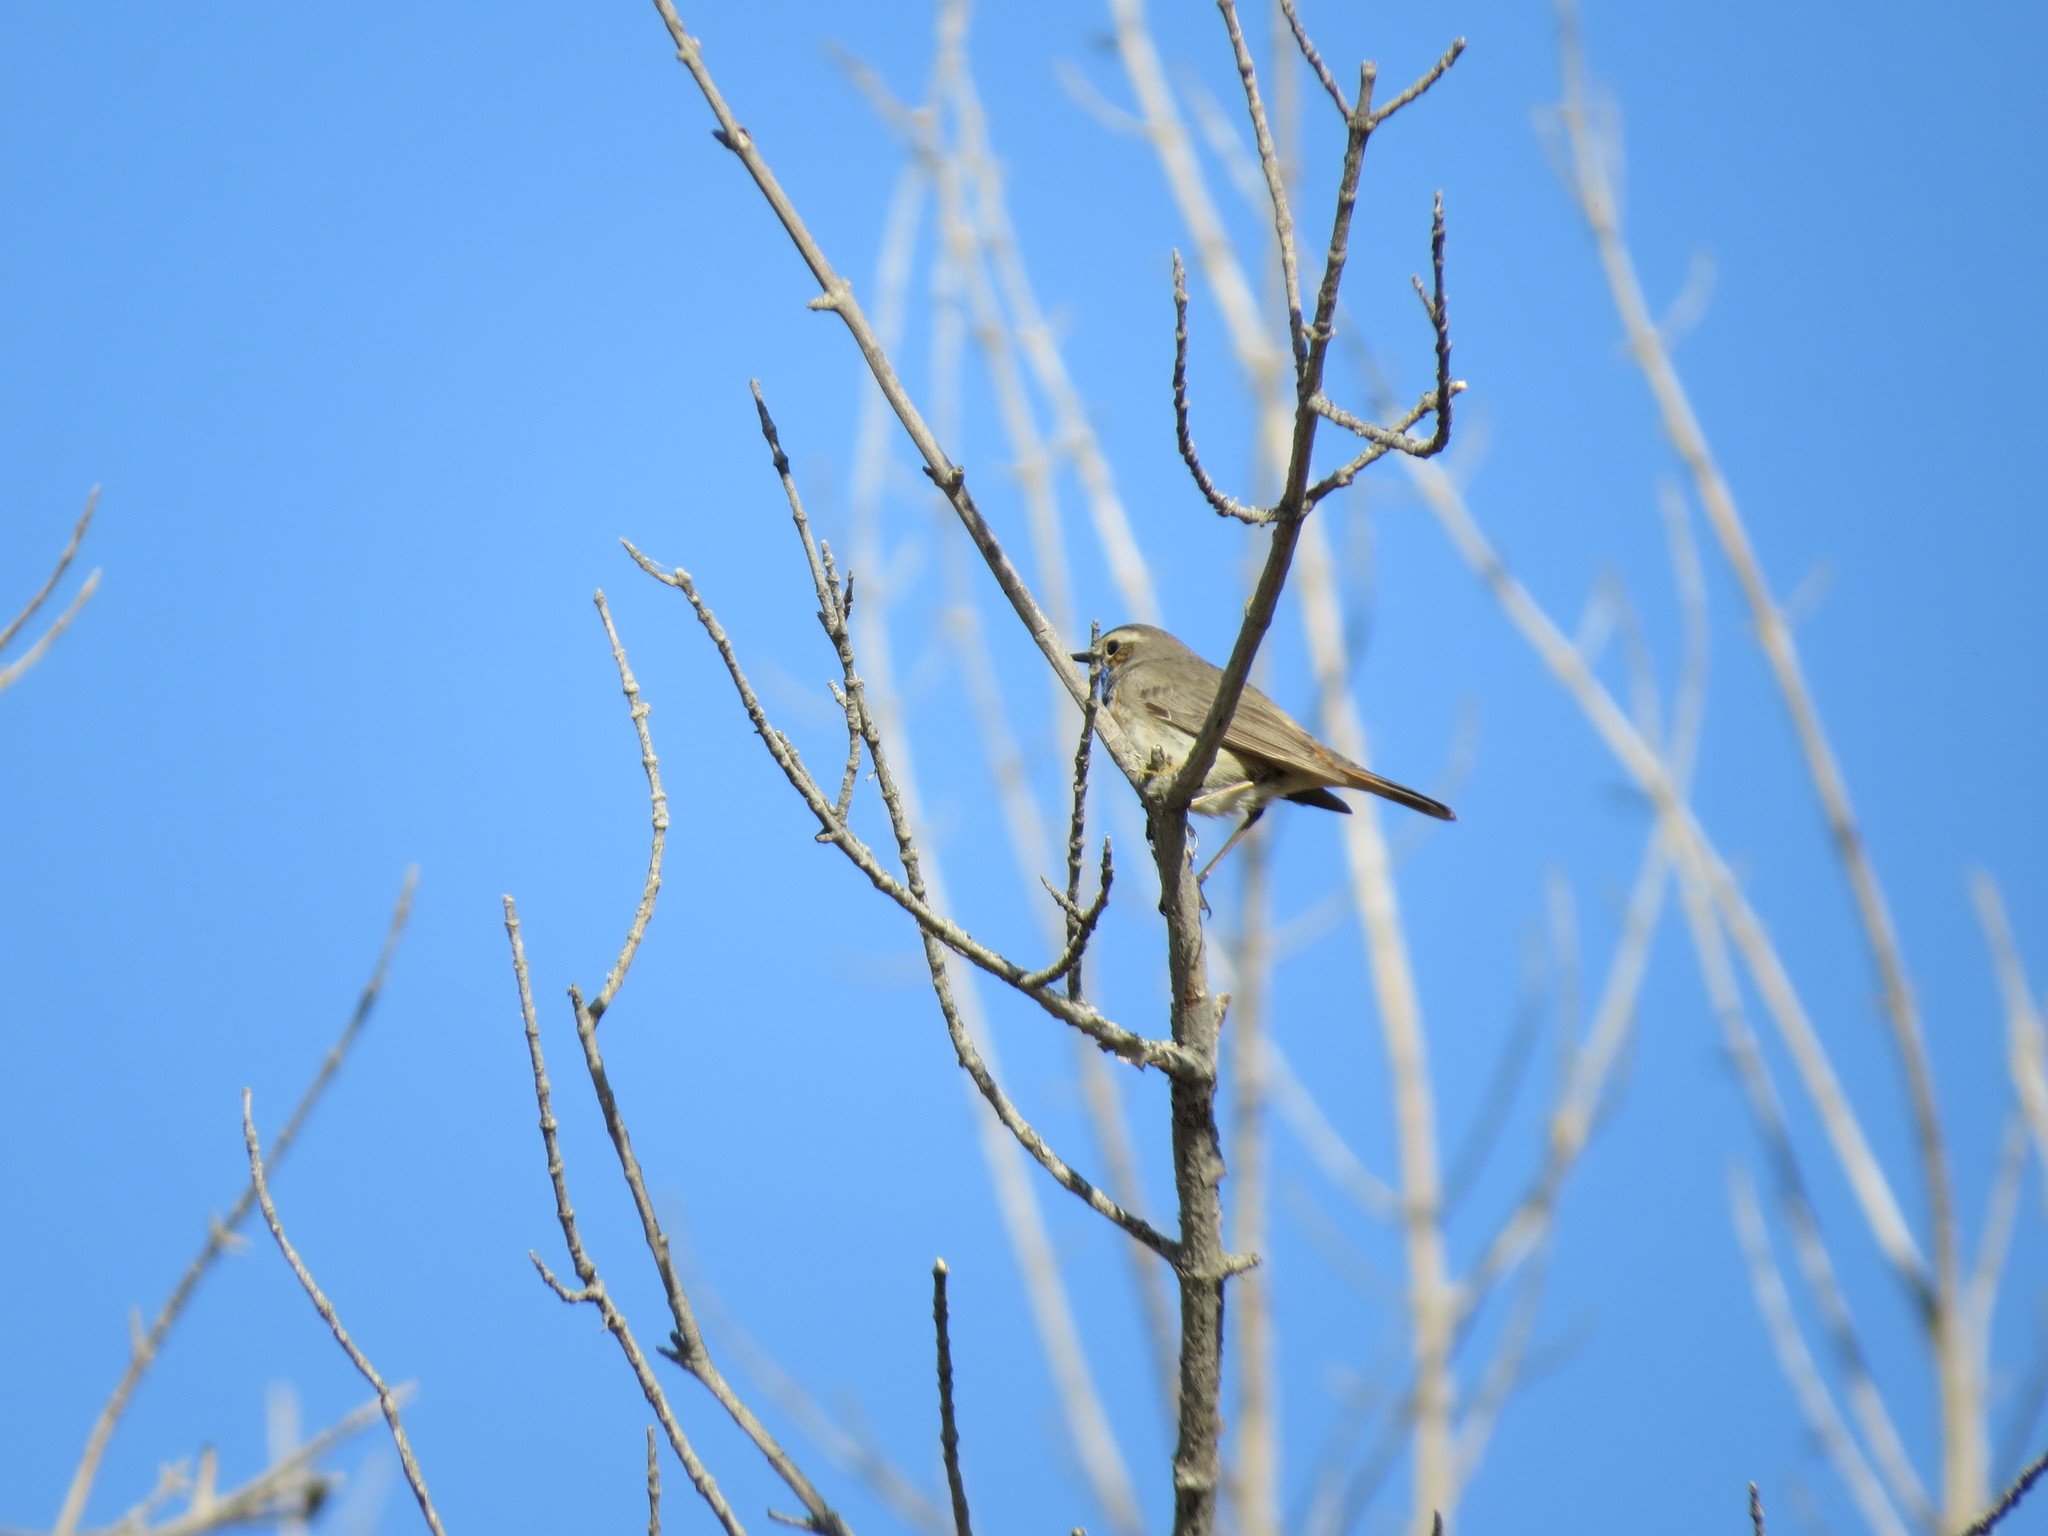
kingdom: Animalia
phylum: Chordata
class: Aves
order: Passeriformes
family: Muscicapidae
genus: Luscinia
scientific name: Luscinia svecica
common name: Bluethroat
